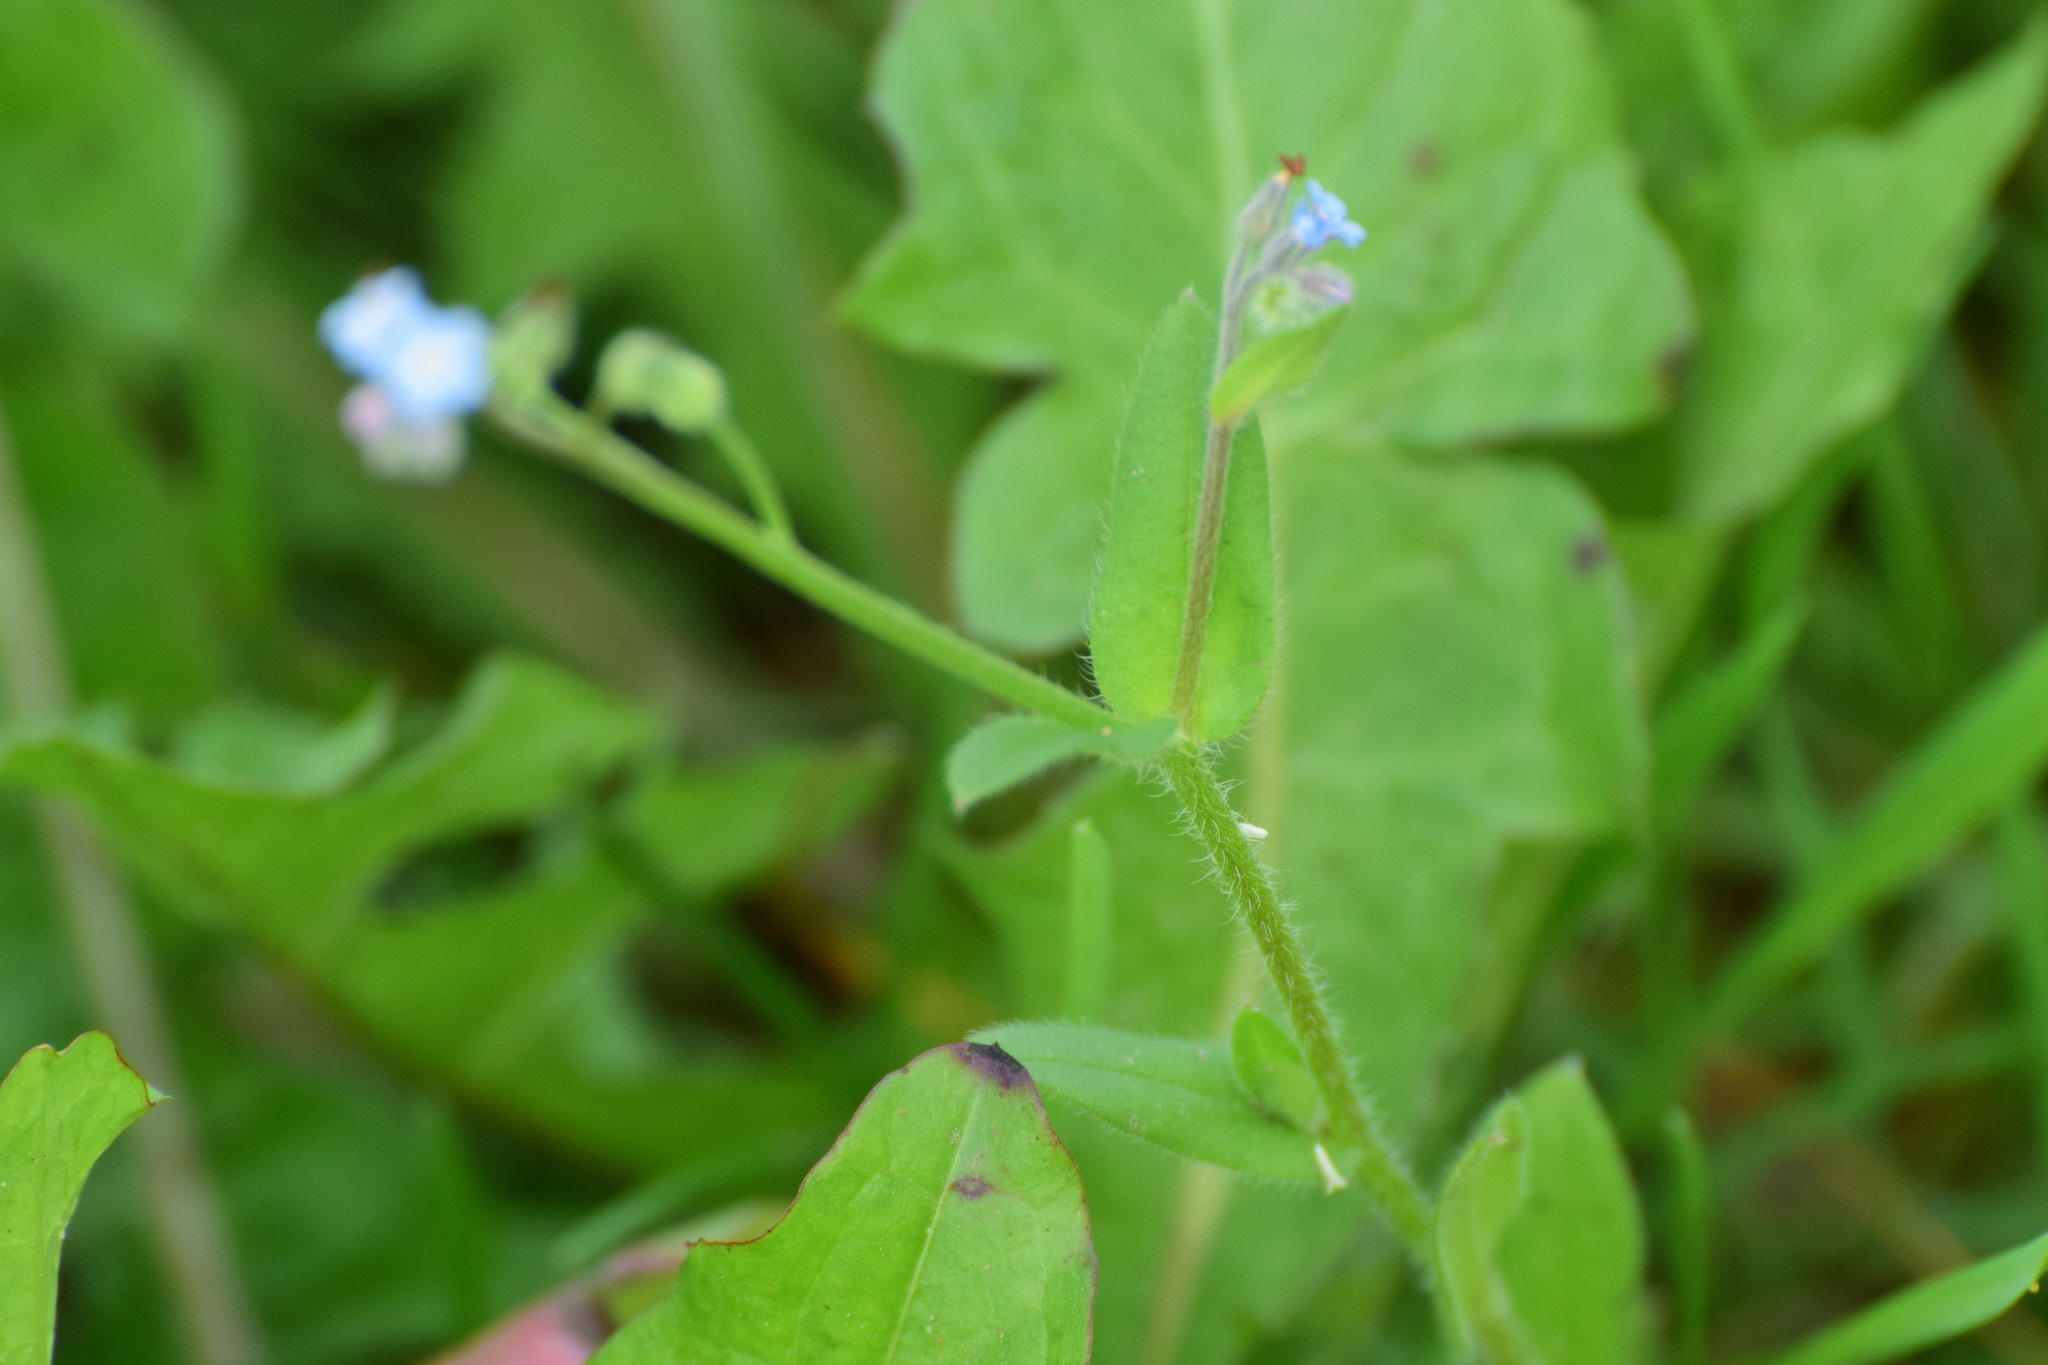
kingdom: Plantae
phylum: Tracheophyta
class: Magnoliopsida
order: Boraginales
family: Boraginaceae
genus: Myosotis
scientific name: Myosotis arvensis
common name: Field forget-me-not
